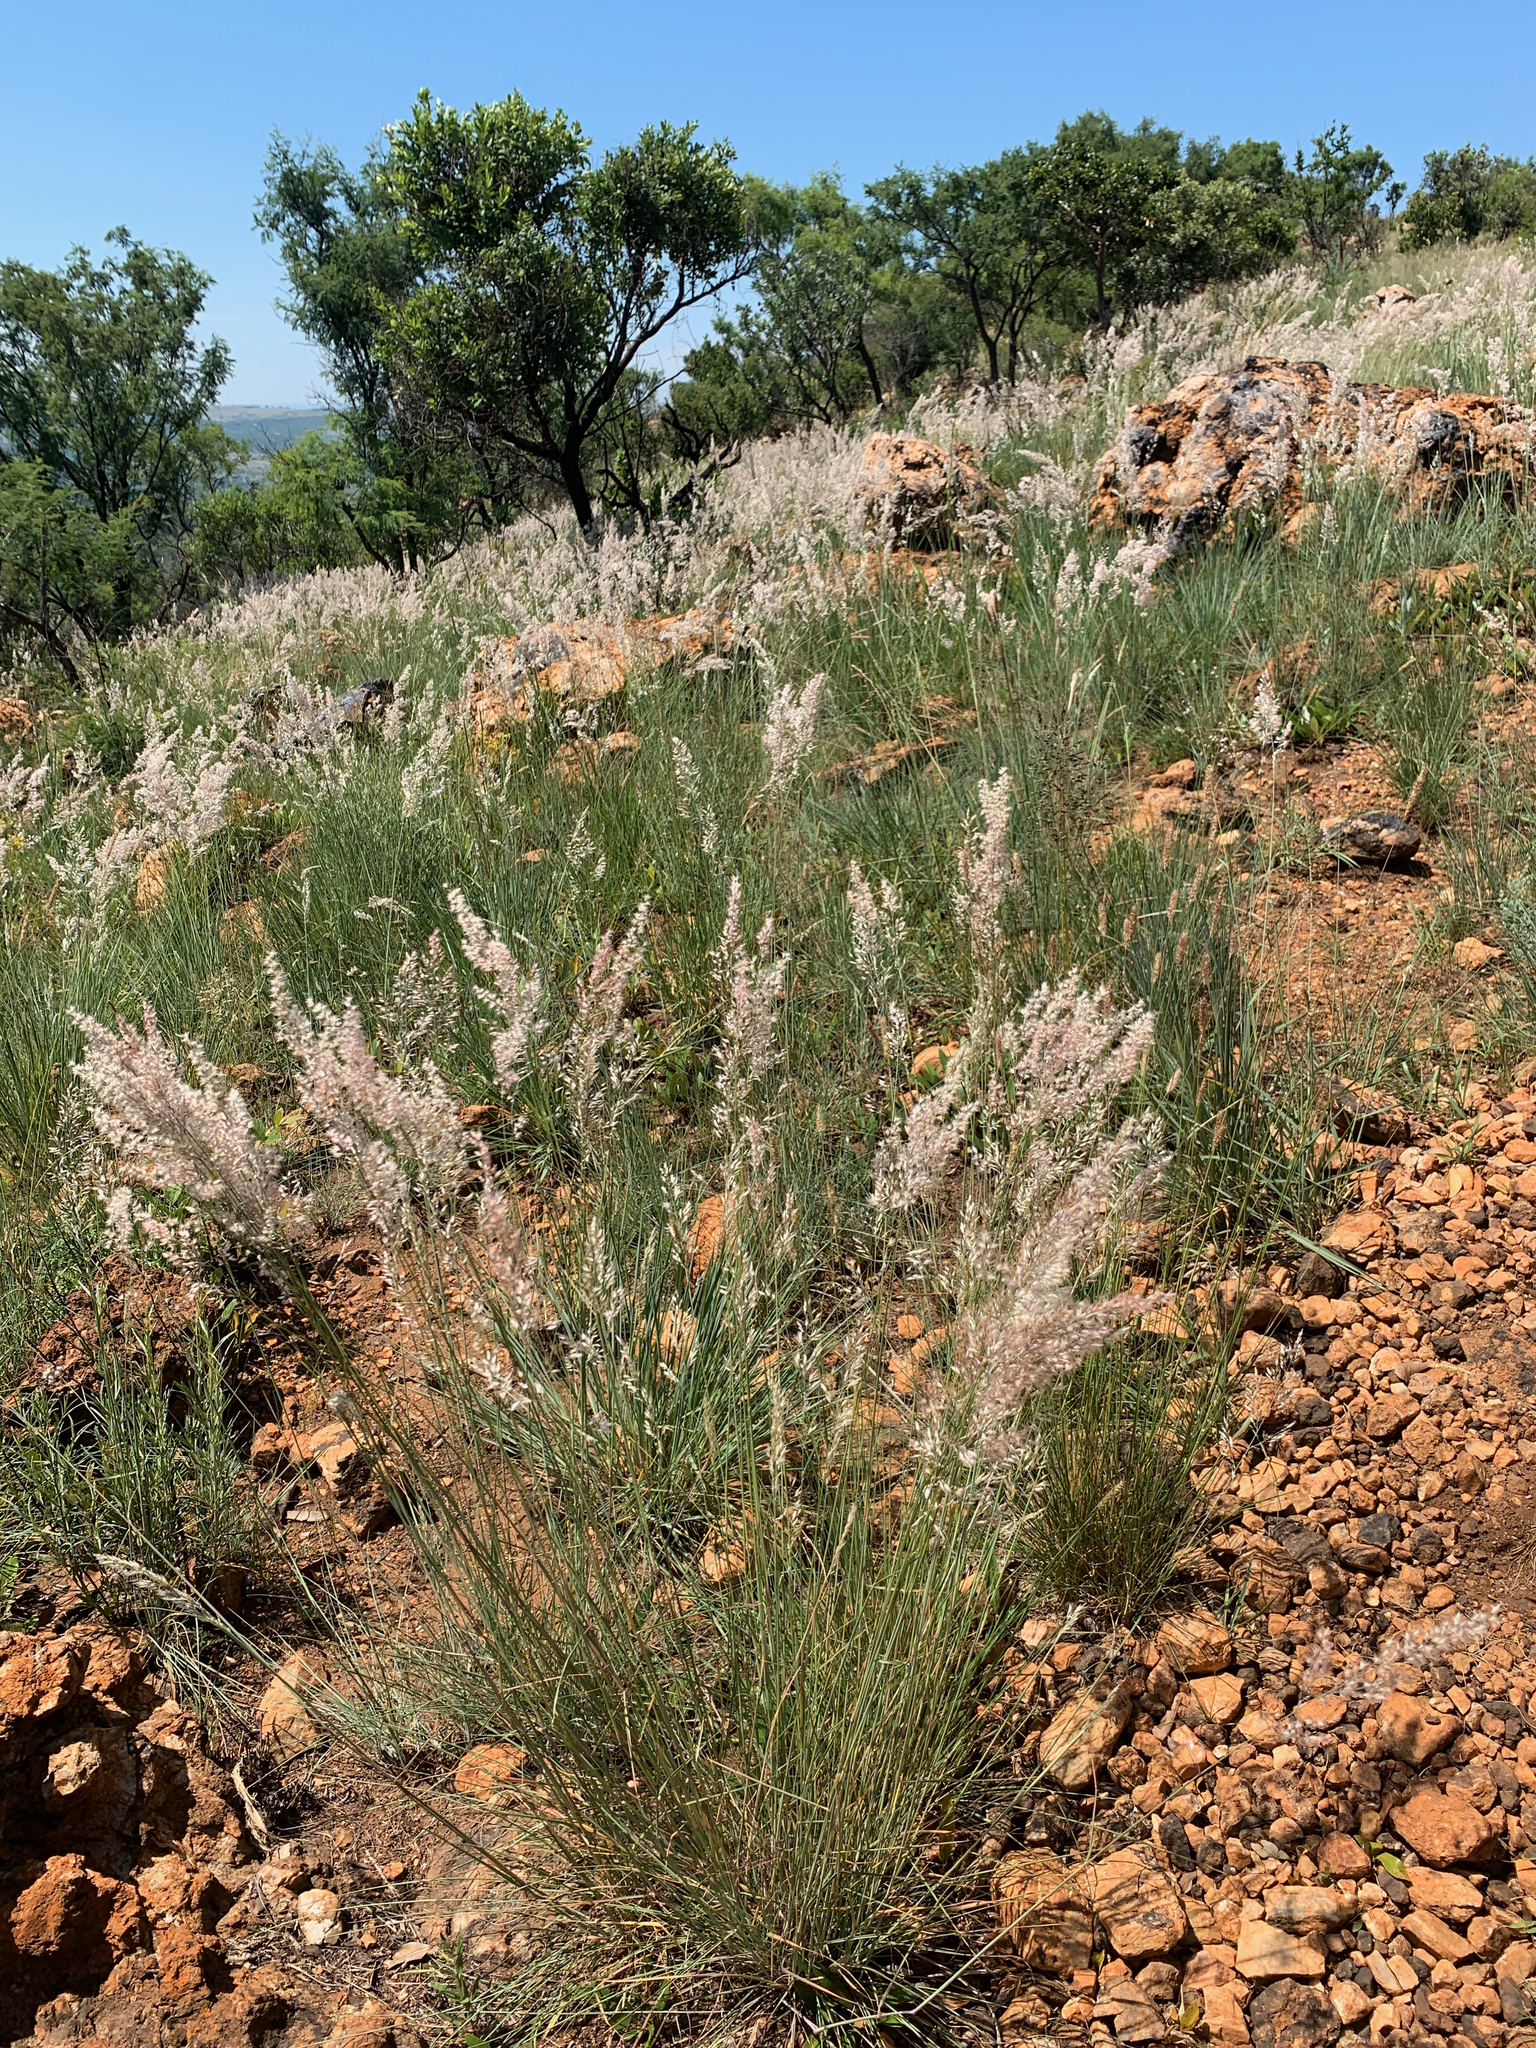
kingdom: Plantae
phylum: Tracheophyta
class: Liliopsida
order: Poales
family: Poaceae
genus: Melinis
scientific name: Melinis nerviglumis
